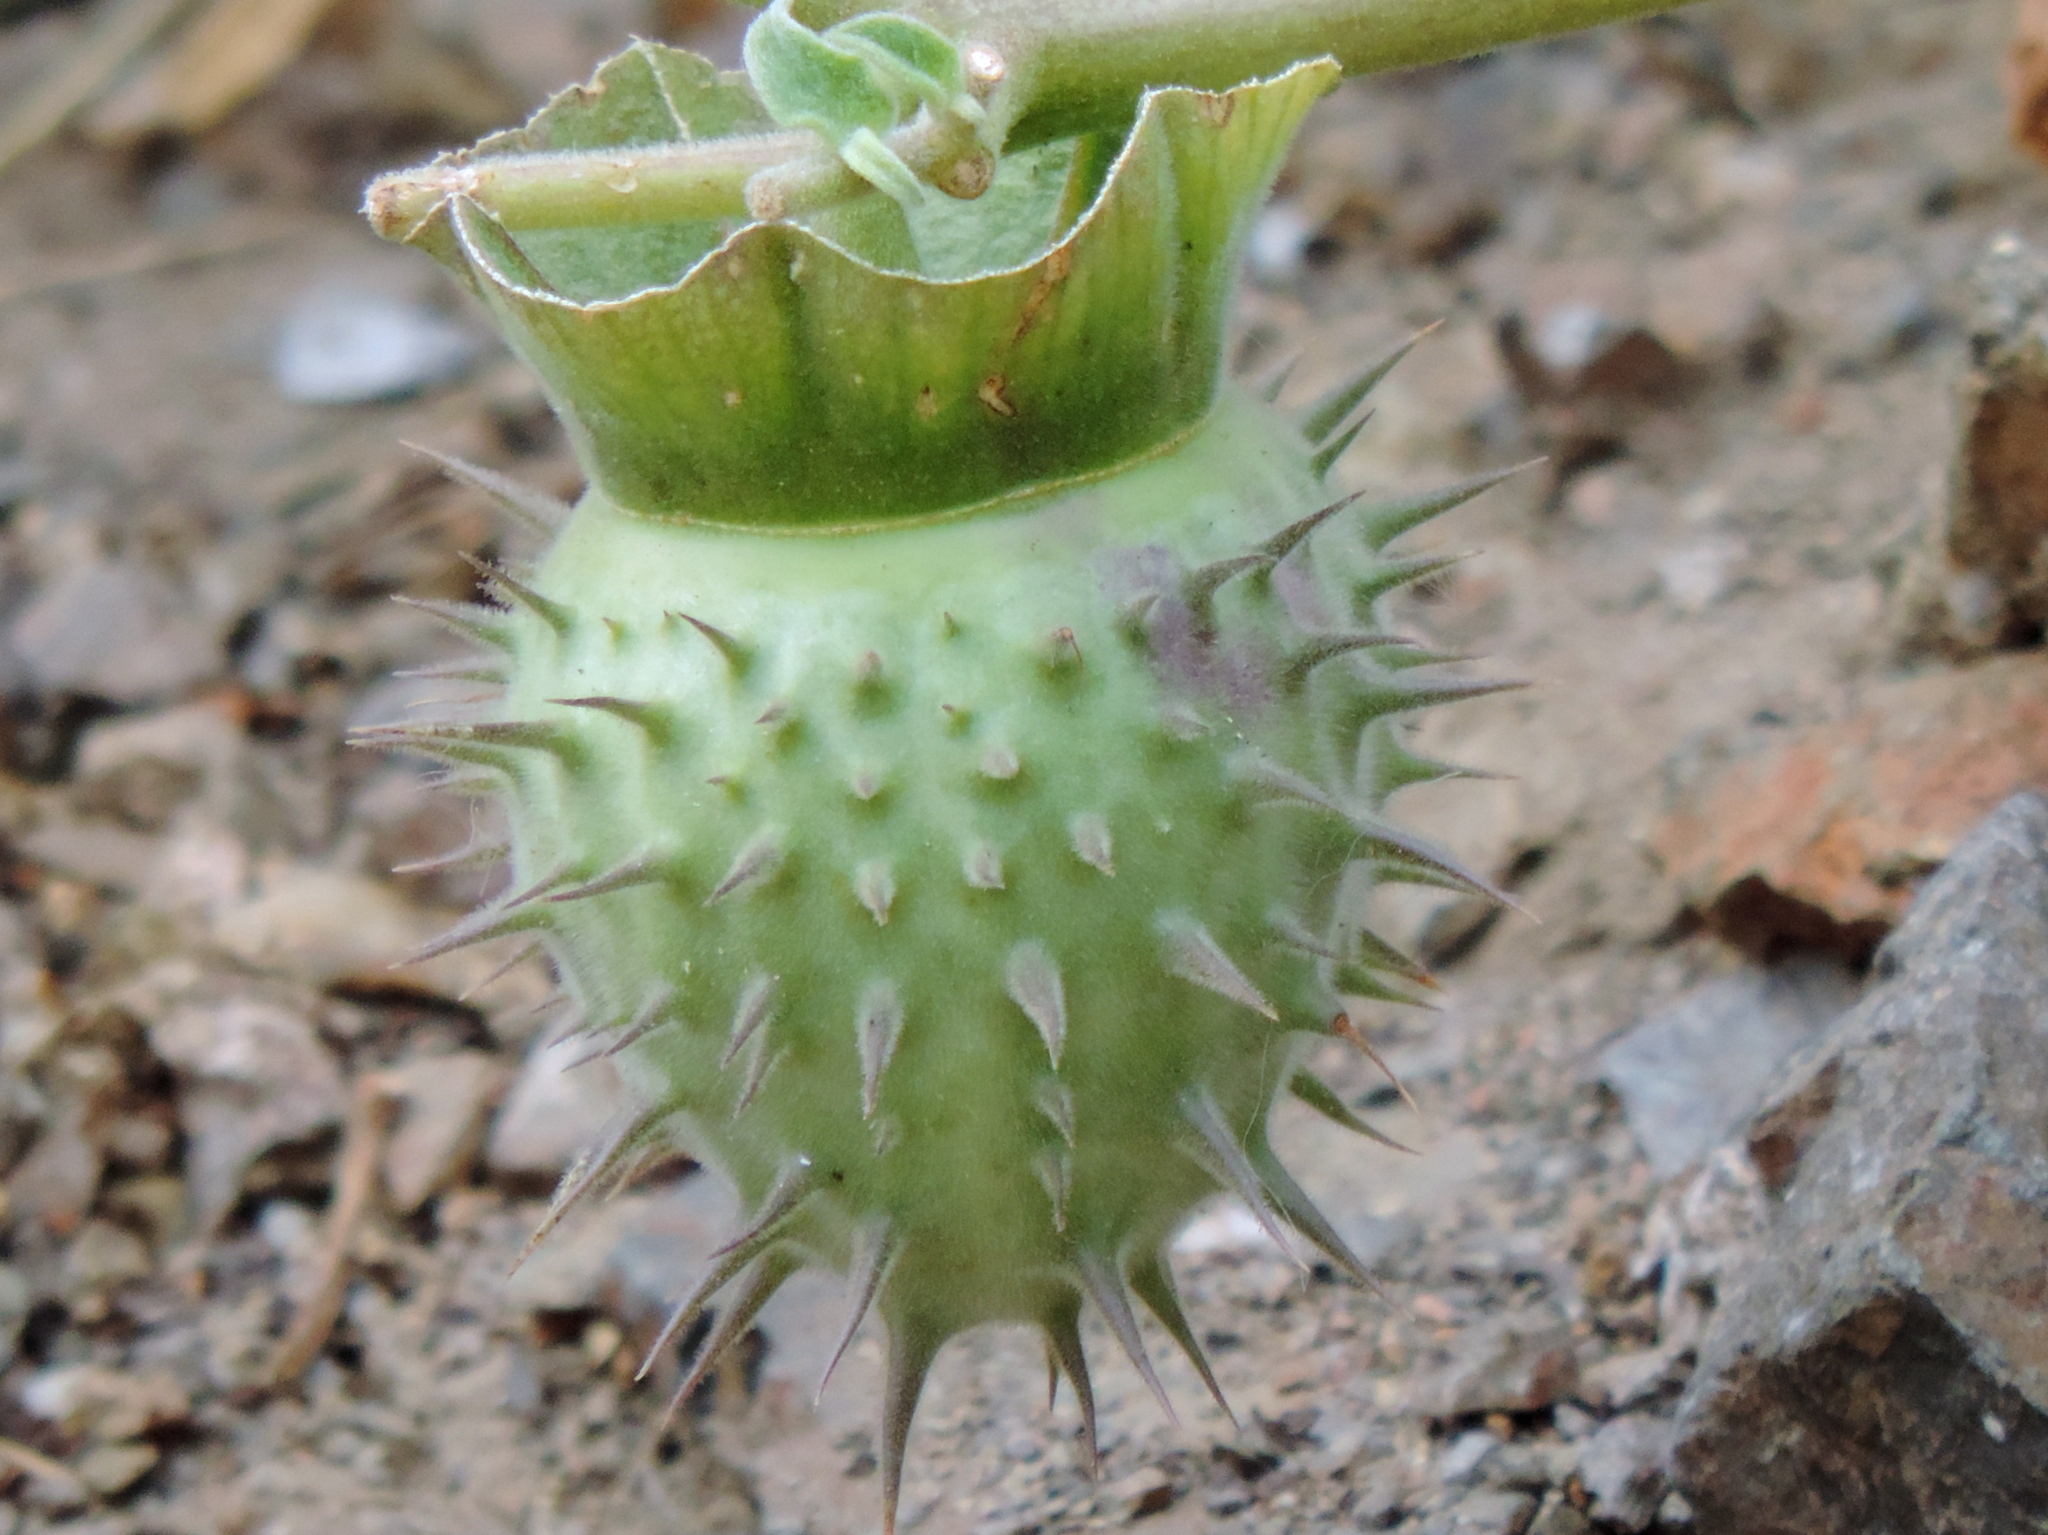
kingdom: Plantae
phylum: Tracheophyta
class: Magnoliopsida
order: Solanales
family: Solanaceae
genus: Datura
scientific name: Datura
